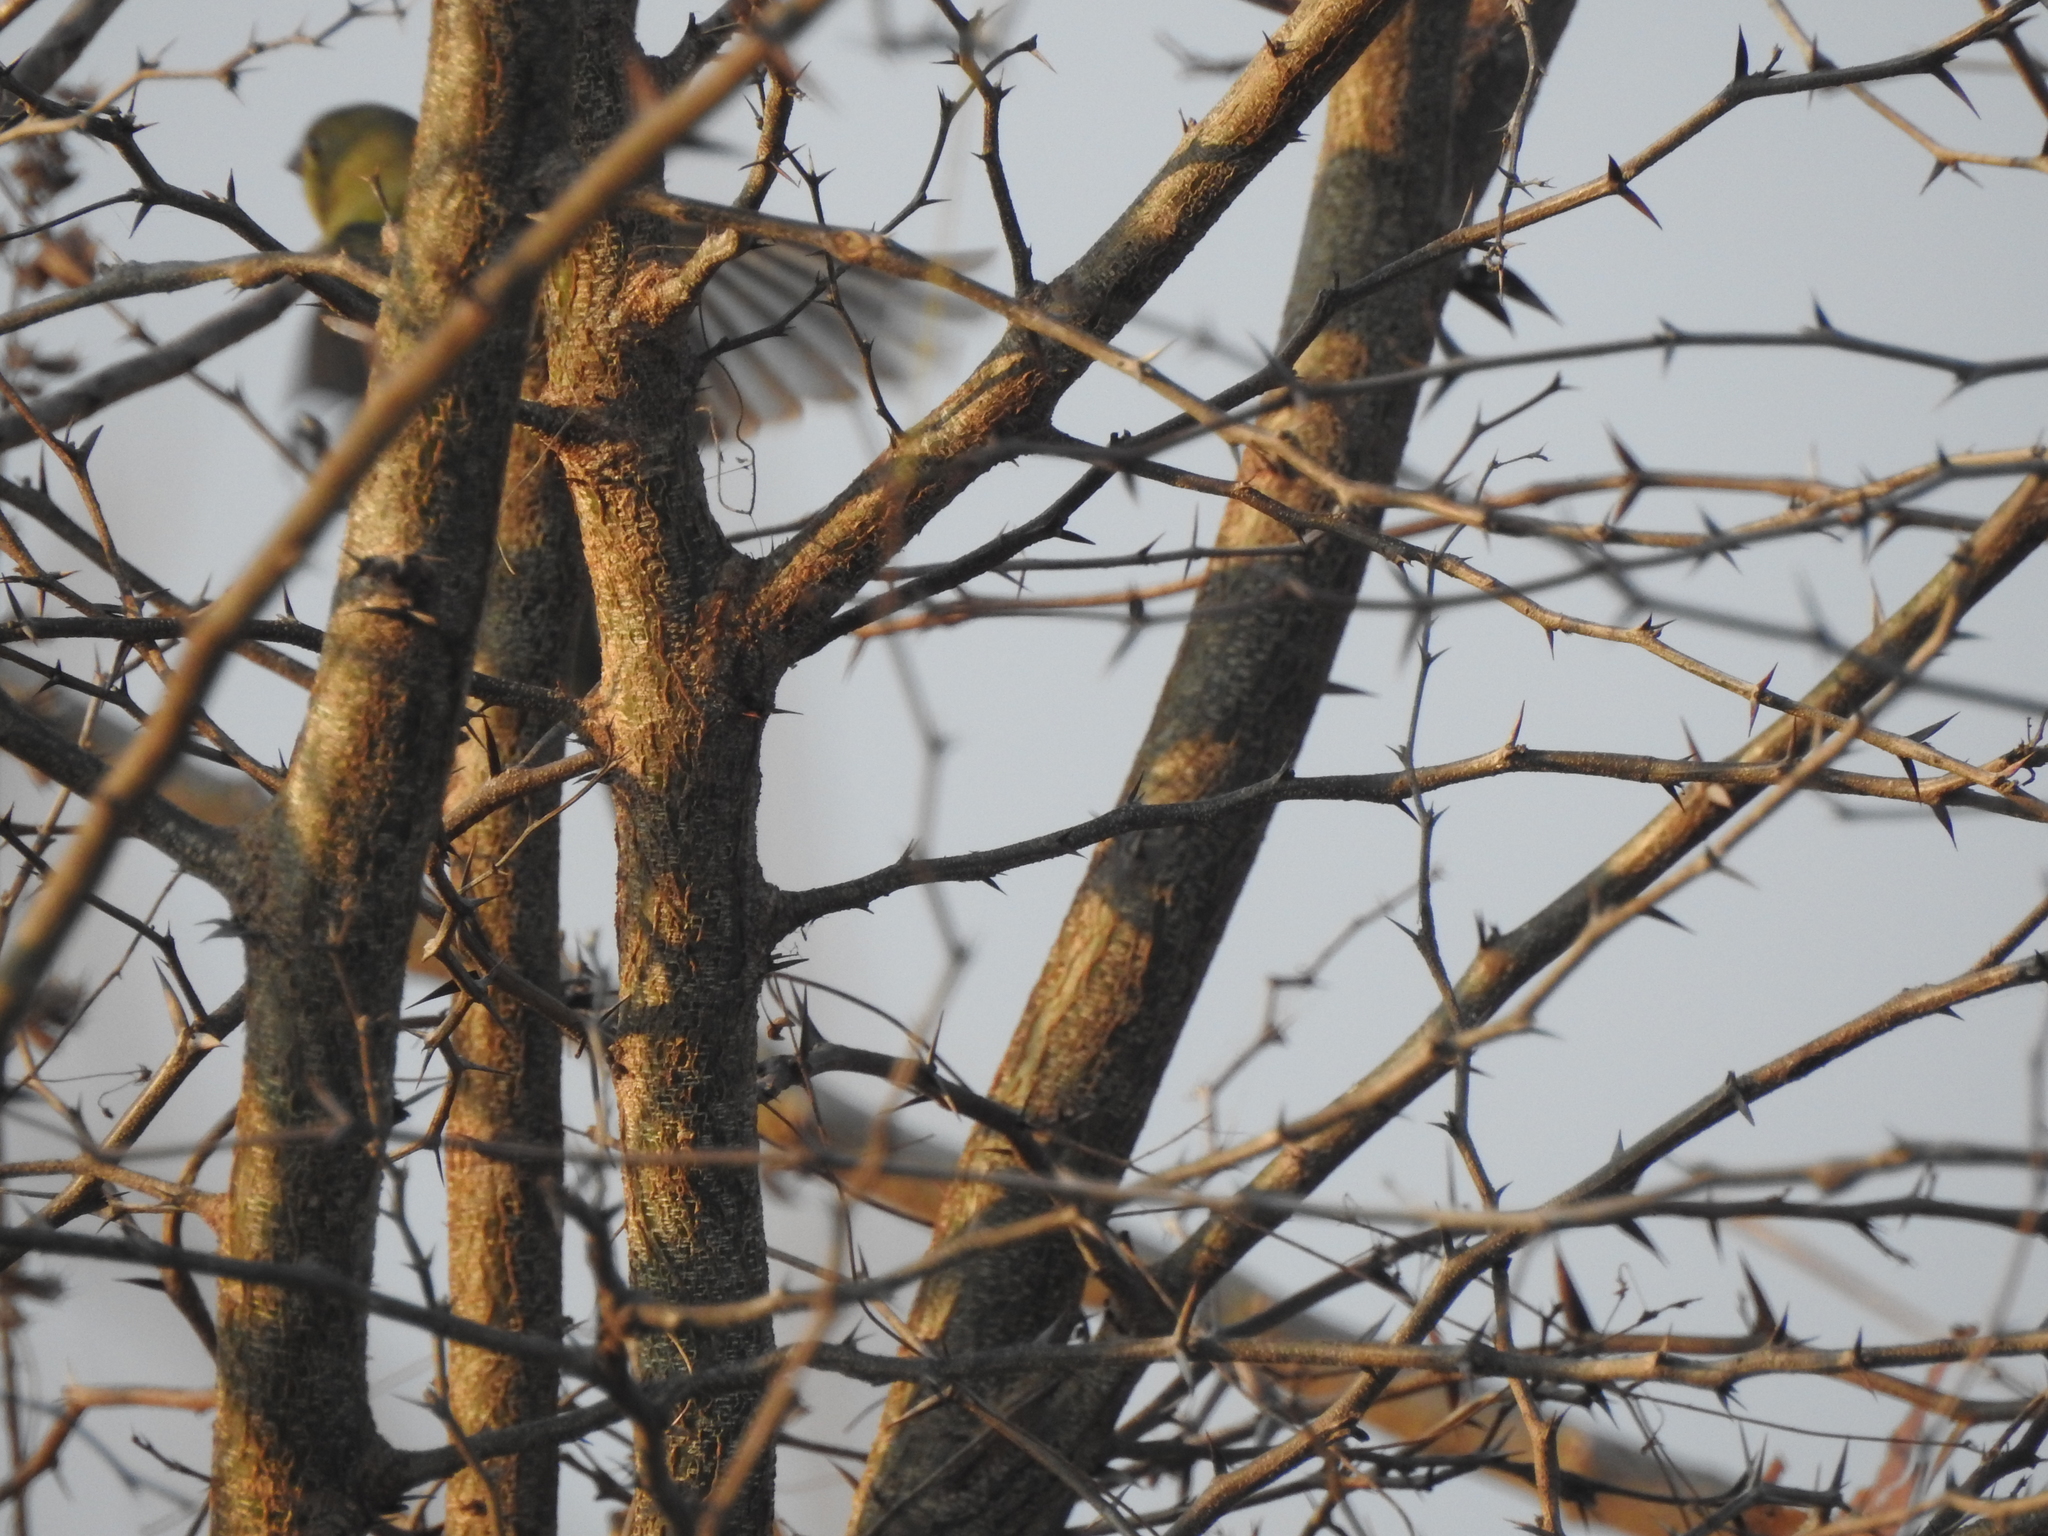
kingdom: Animalia
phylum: Chordata
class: Aves
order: Passeriformes
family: Cardinalidae
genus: Passerina
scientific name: Passerina ciris
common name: Painted bunting
